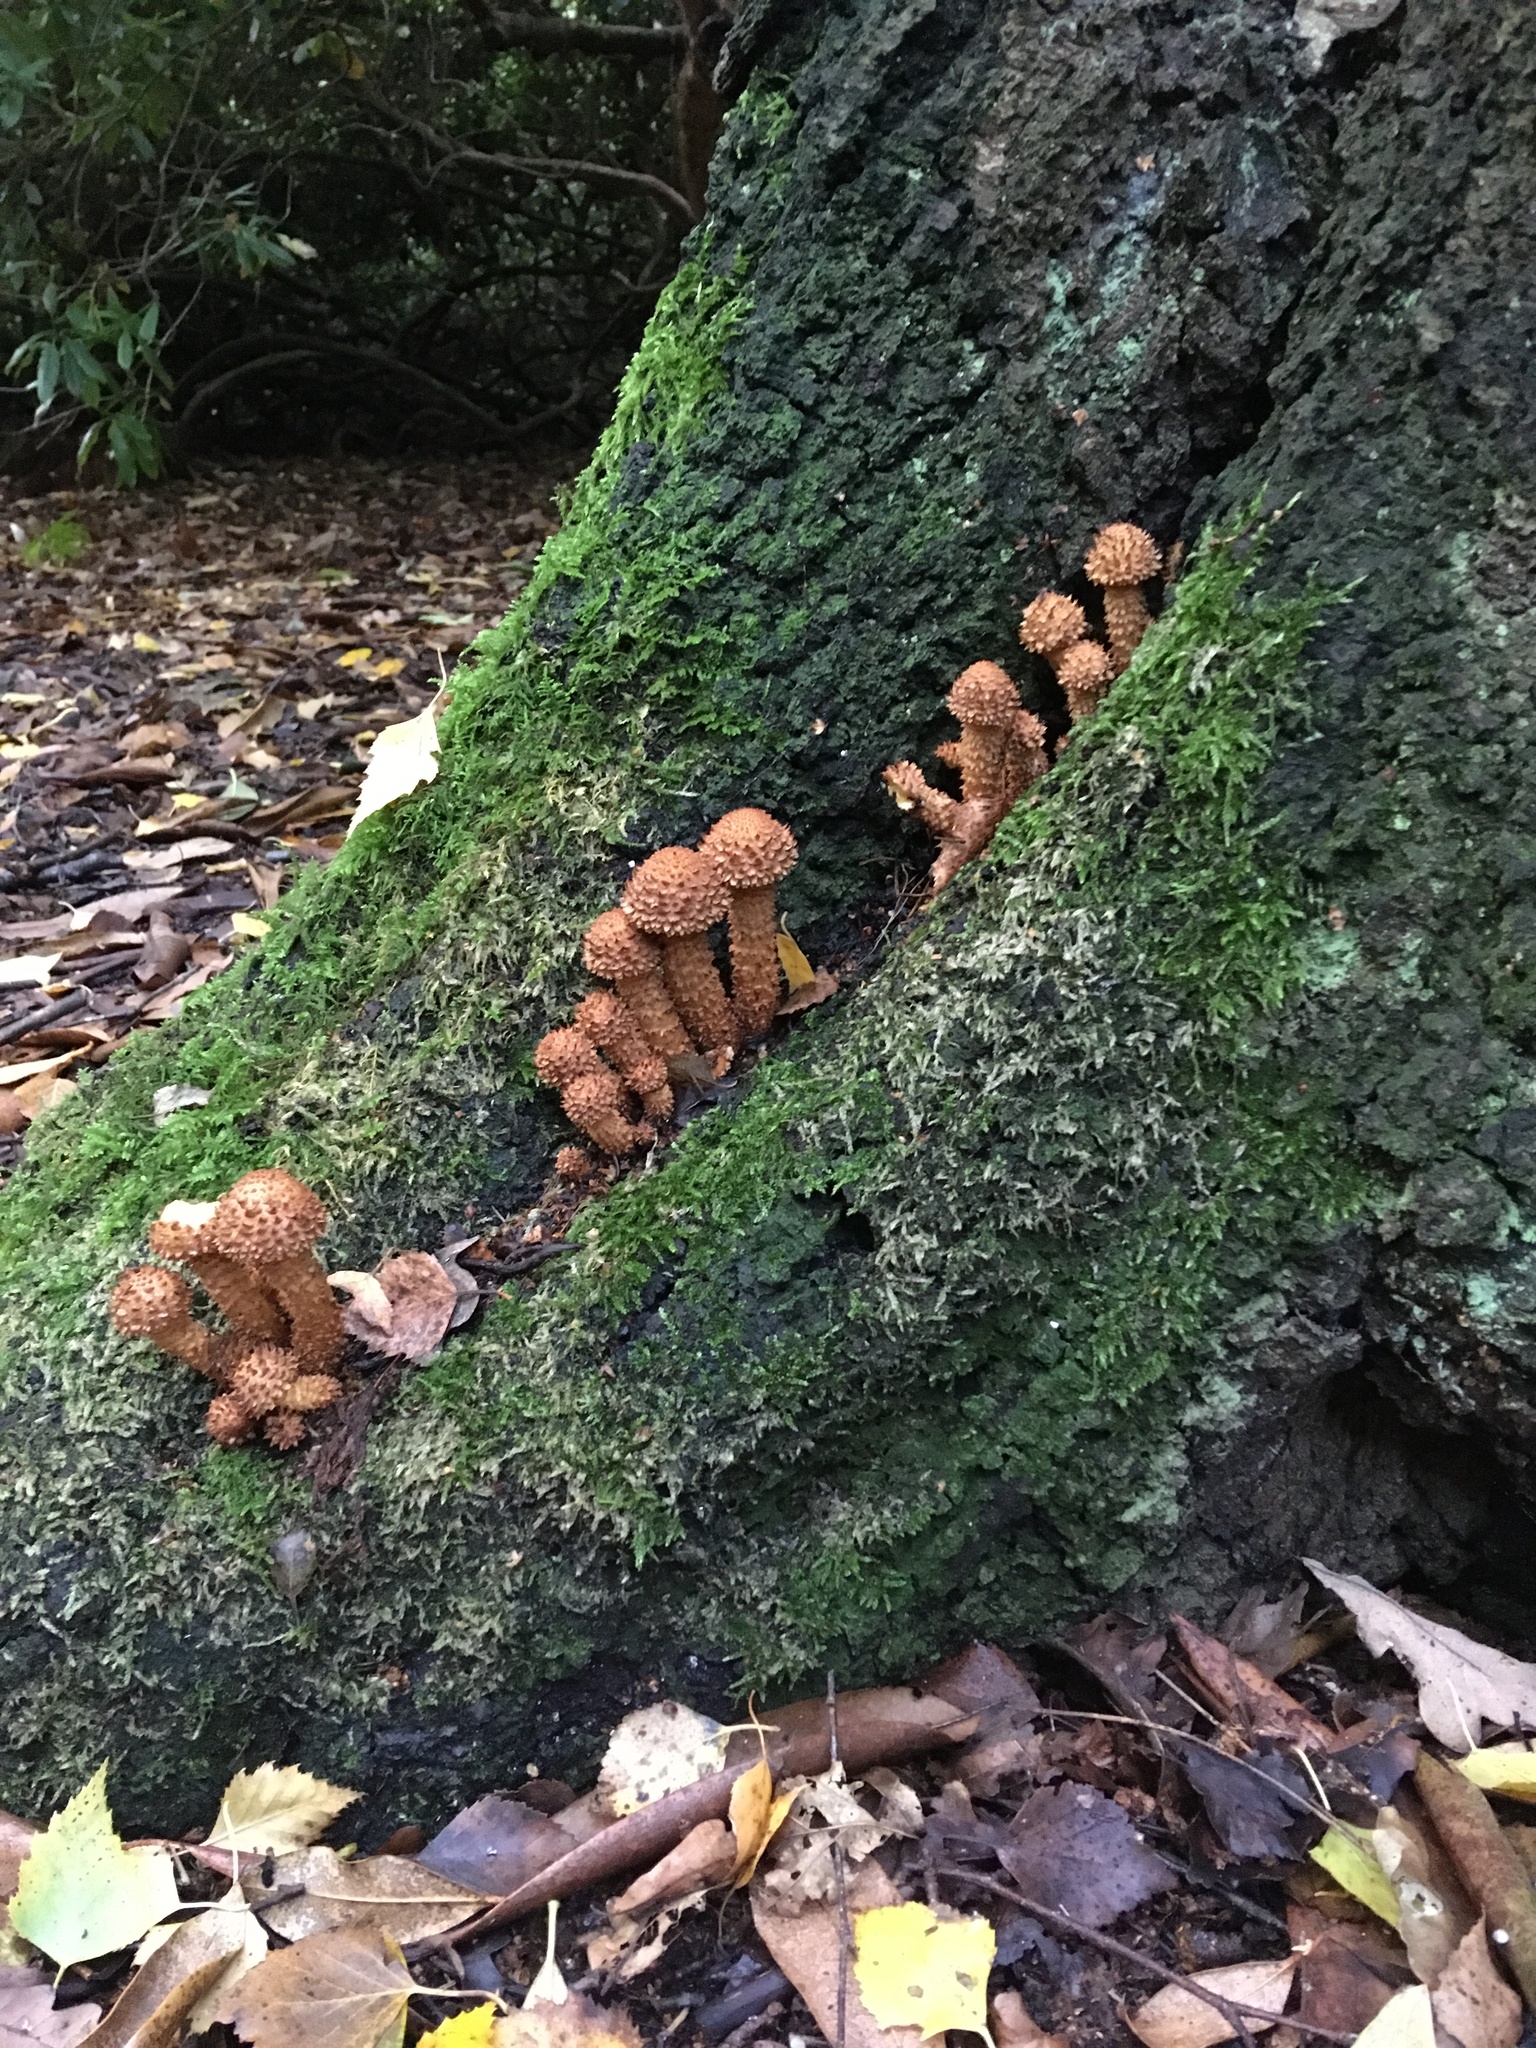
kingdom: Fungi
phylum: Basidiomycota
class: Agaricomycetes
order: Agaricales
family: Strophariaceae
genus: Pholiota
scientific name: Pholiota squarrosa
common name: Shaggy pholiota
